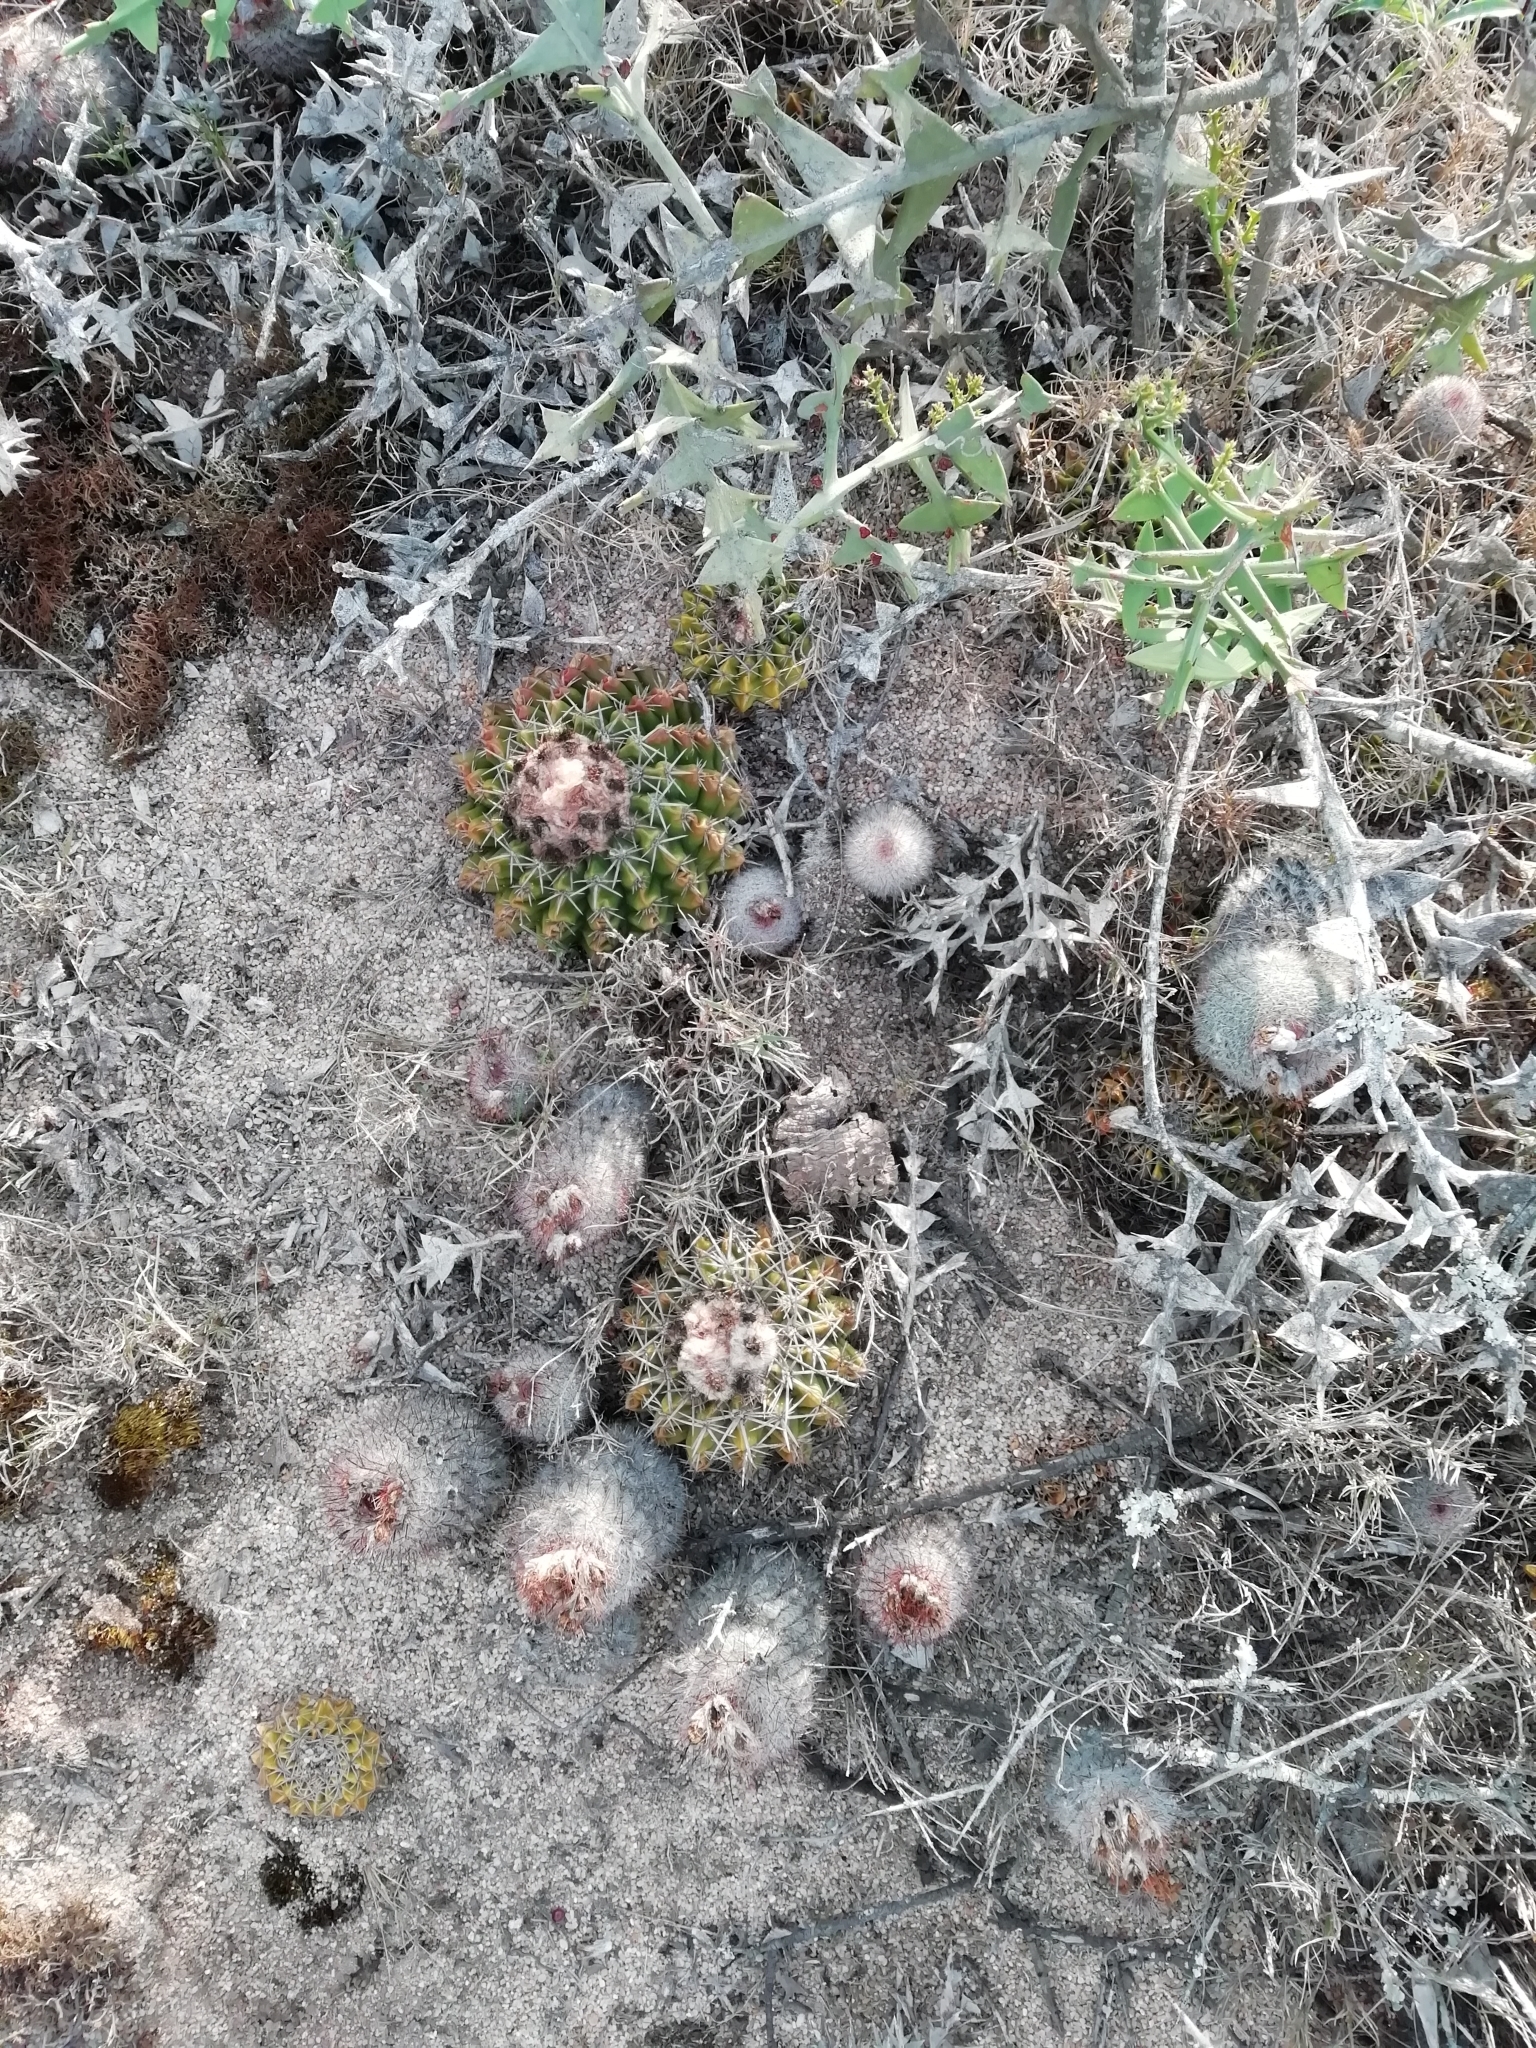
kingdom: Plantae
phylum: Tracheophyta
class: Magnoliopsida
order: Caryophyllales
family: Cactaceae
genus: Parodia
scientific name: Parodia erinacea
